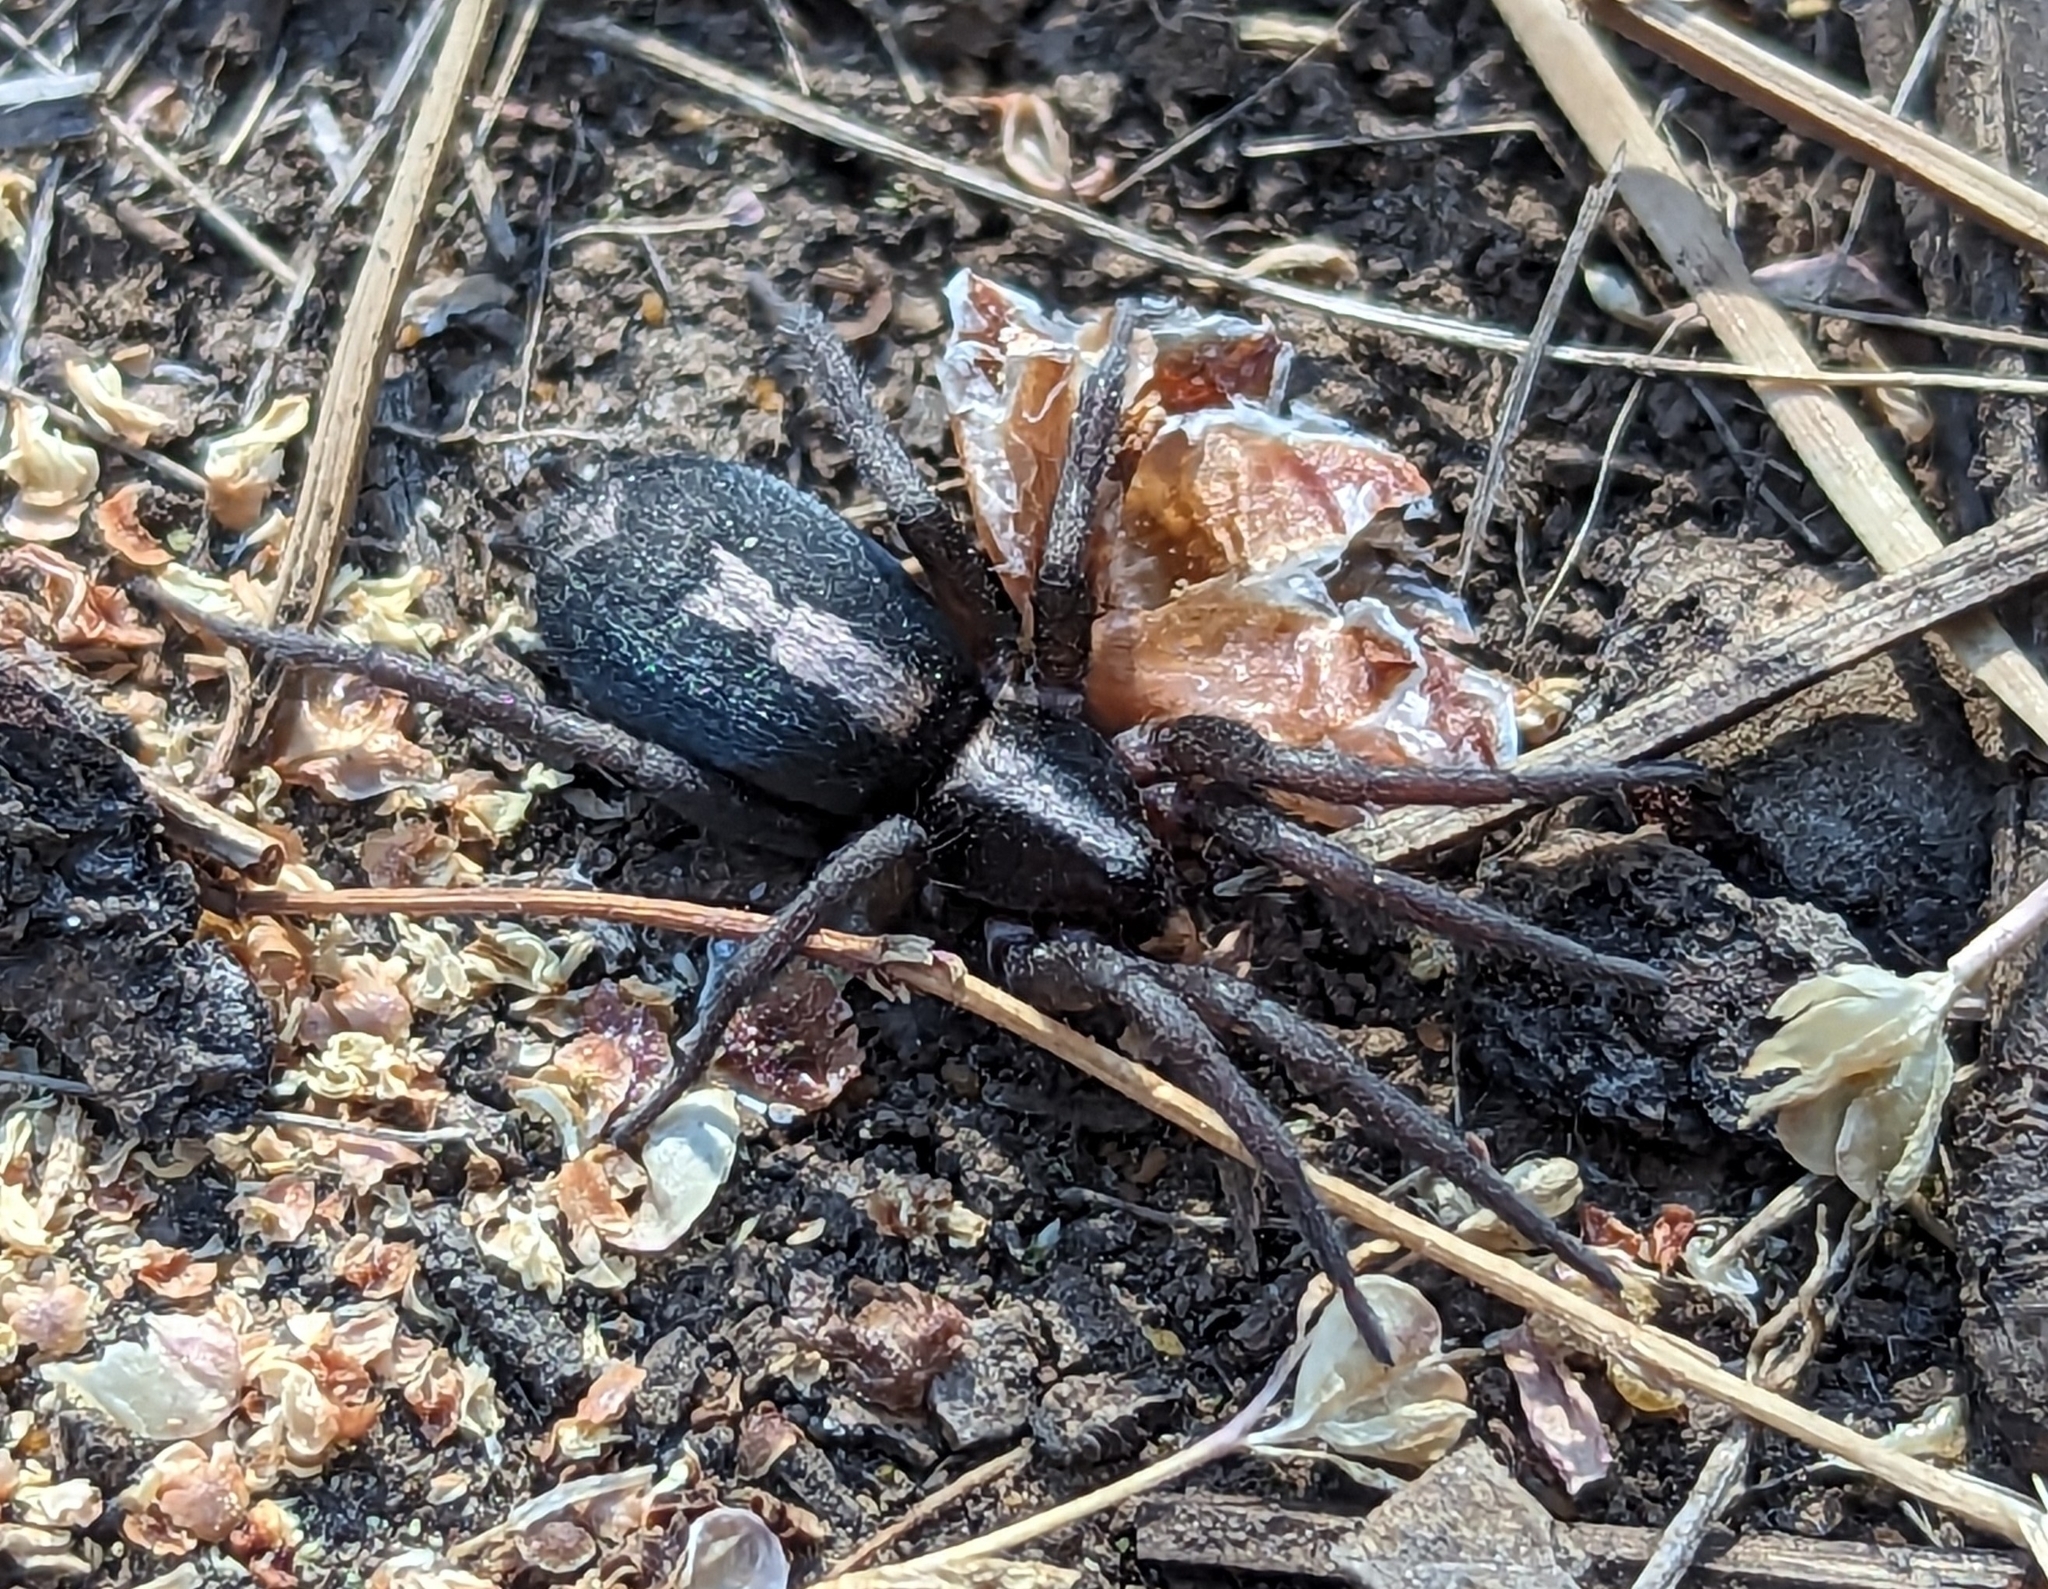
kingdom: Animalia
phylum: Arthropoda
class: Arachnida
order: Araneae
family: Gnaphosidae
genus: Herpyllus
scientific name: Herpyllus propinquus
